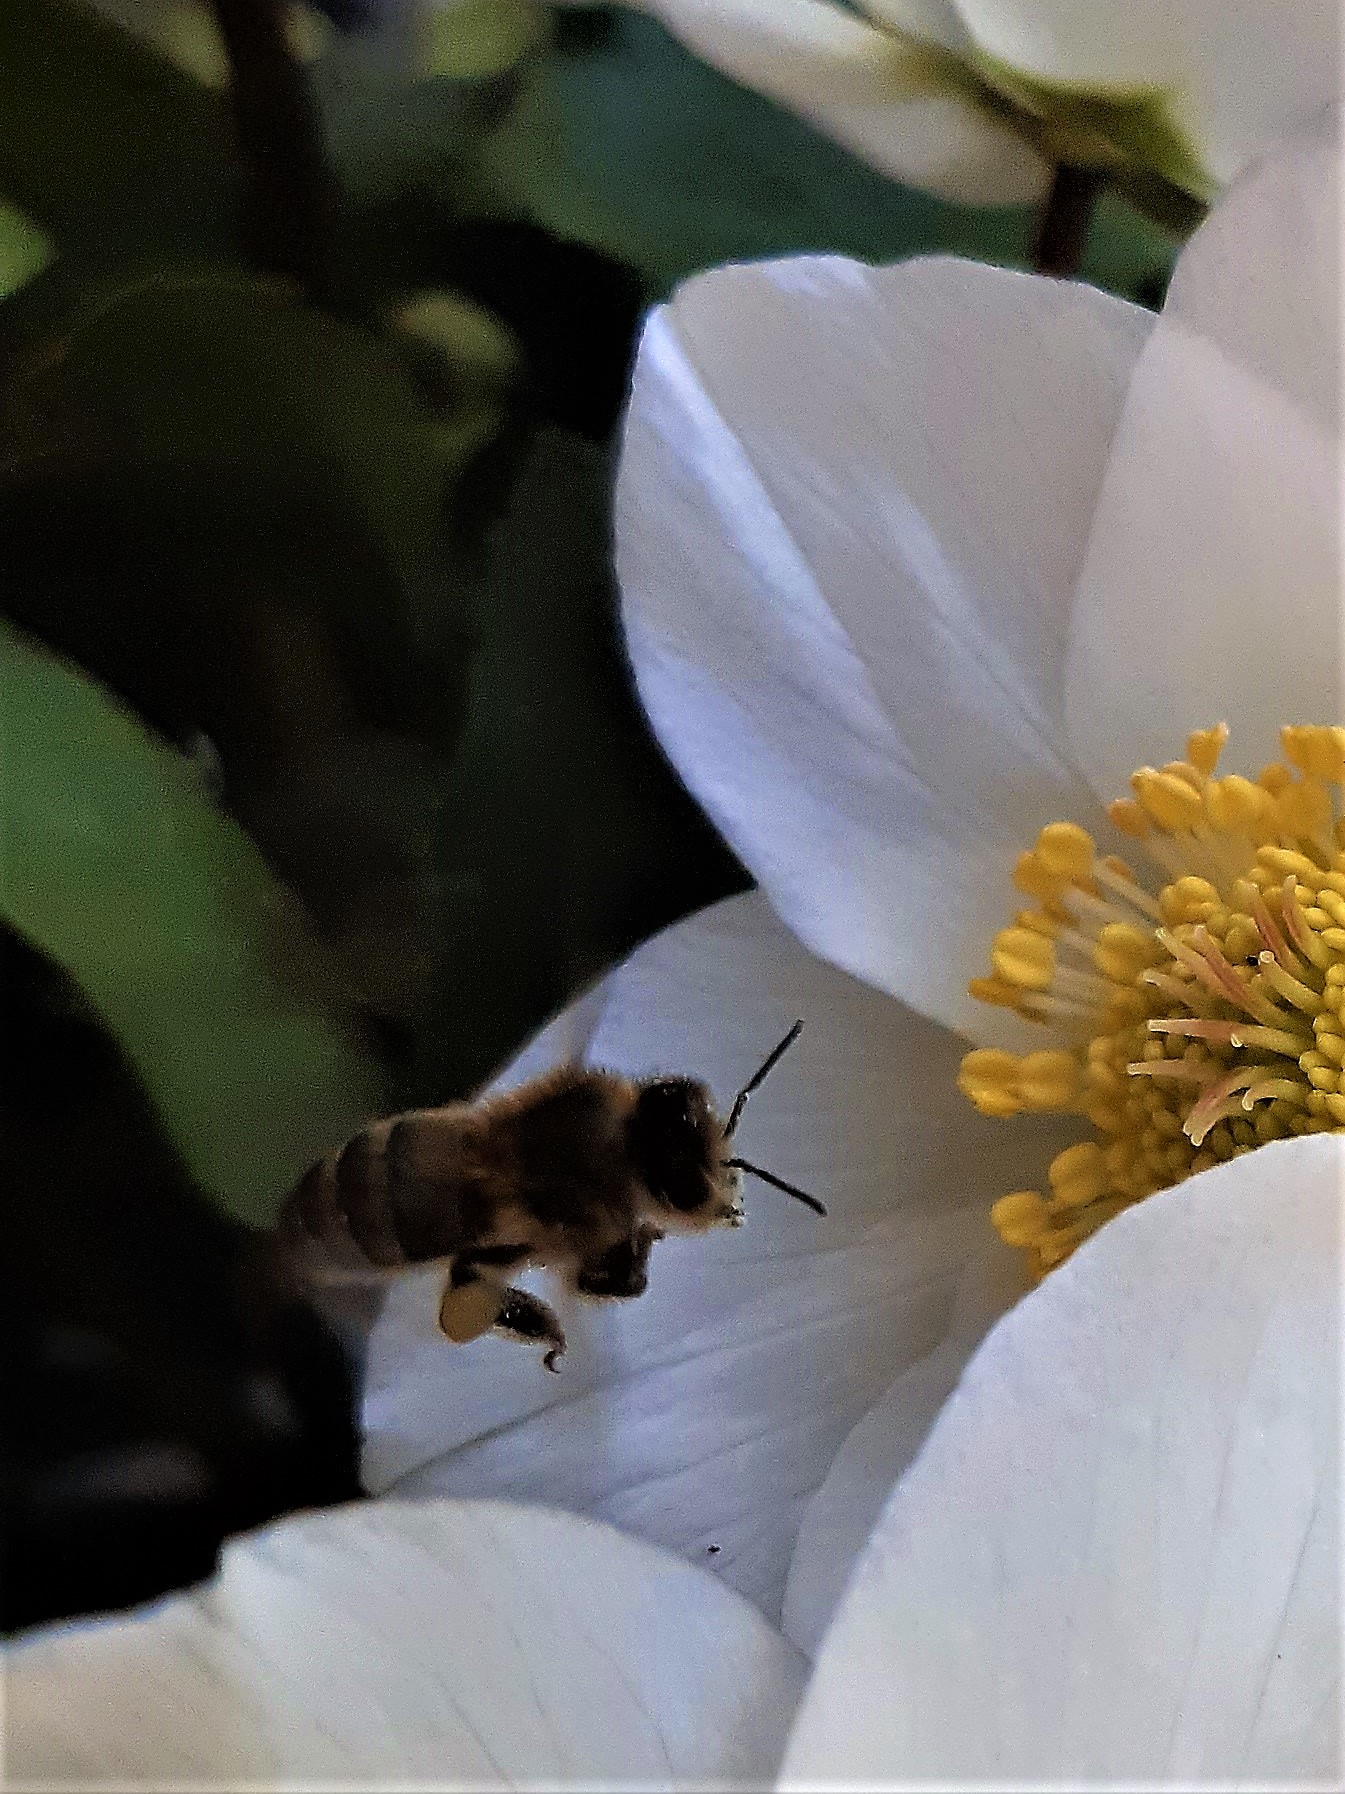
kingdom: Animalia
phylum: Arthropoda
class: Insecta
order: Hymenoptera
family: Apidae
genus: Apis
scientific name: Apis mellifera
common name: Honey bee
